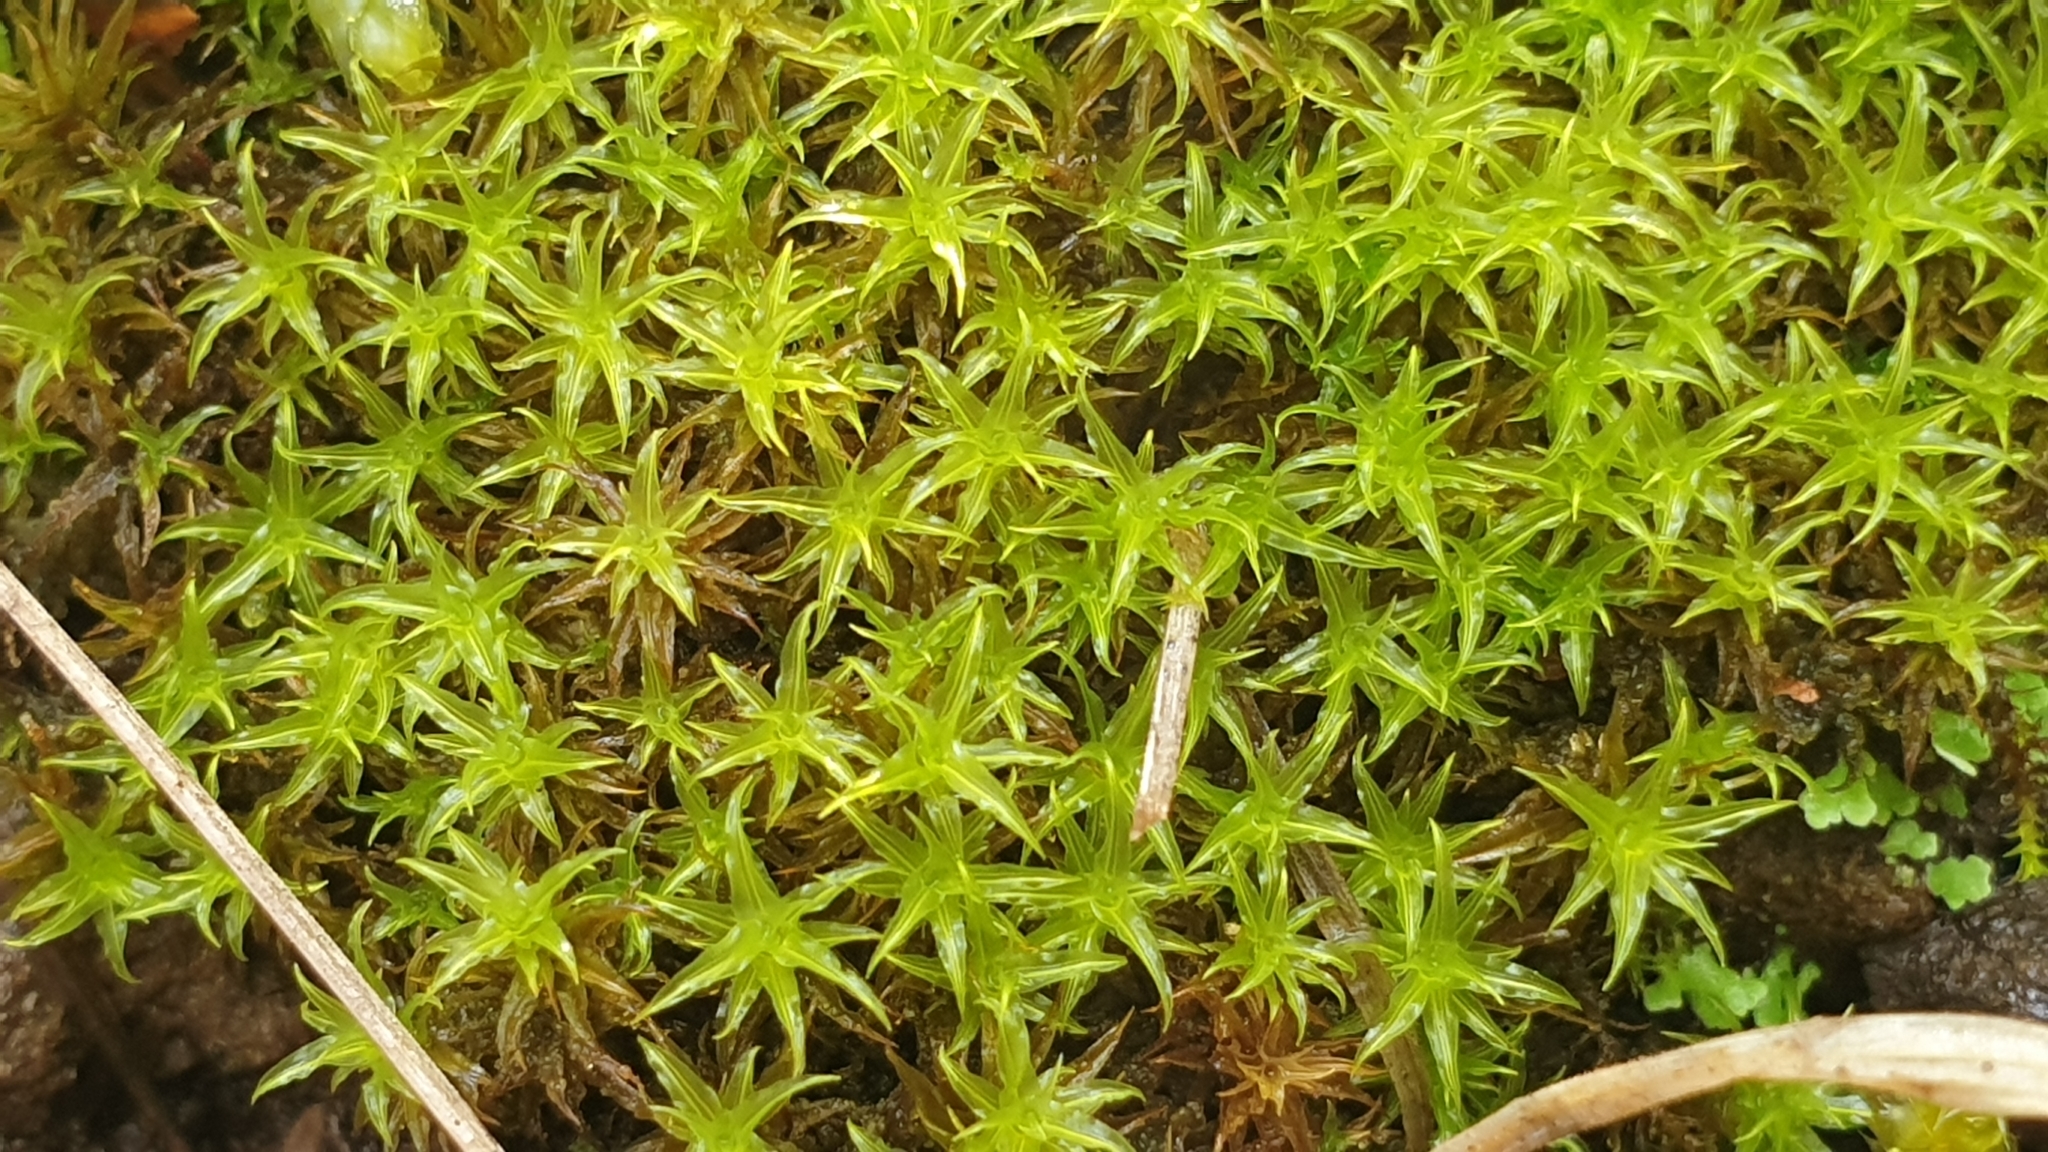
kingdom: Plantae
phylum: Bryophyta
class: Bryopsida
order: Pottiales
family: Pottiaceae
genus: Gertrudiella
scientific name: Gertrudiella torquata
